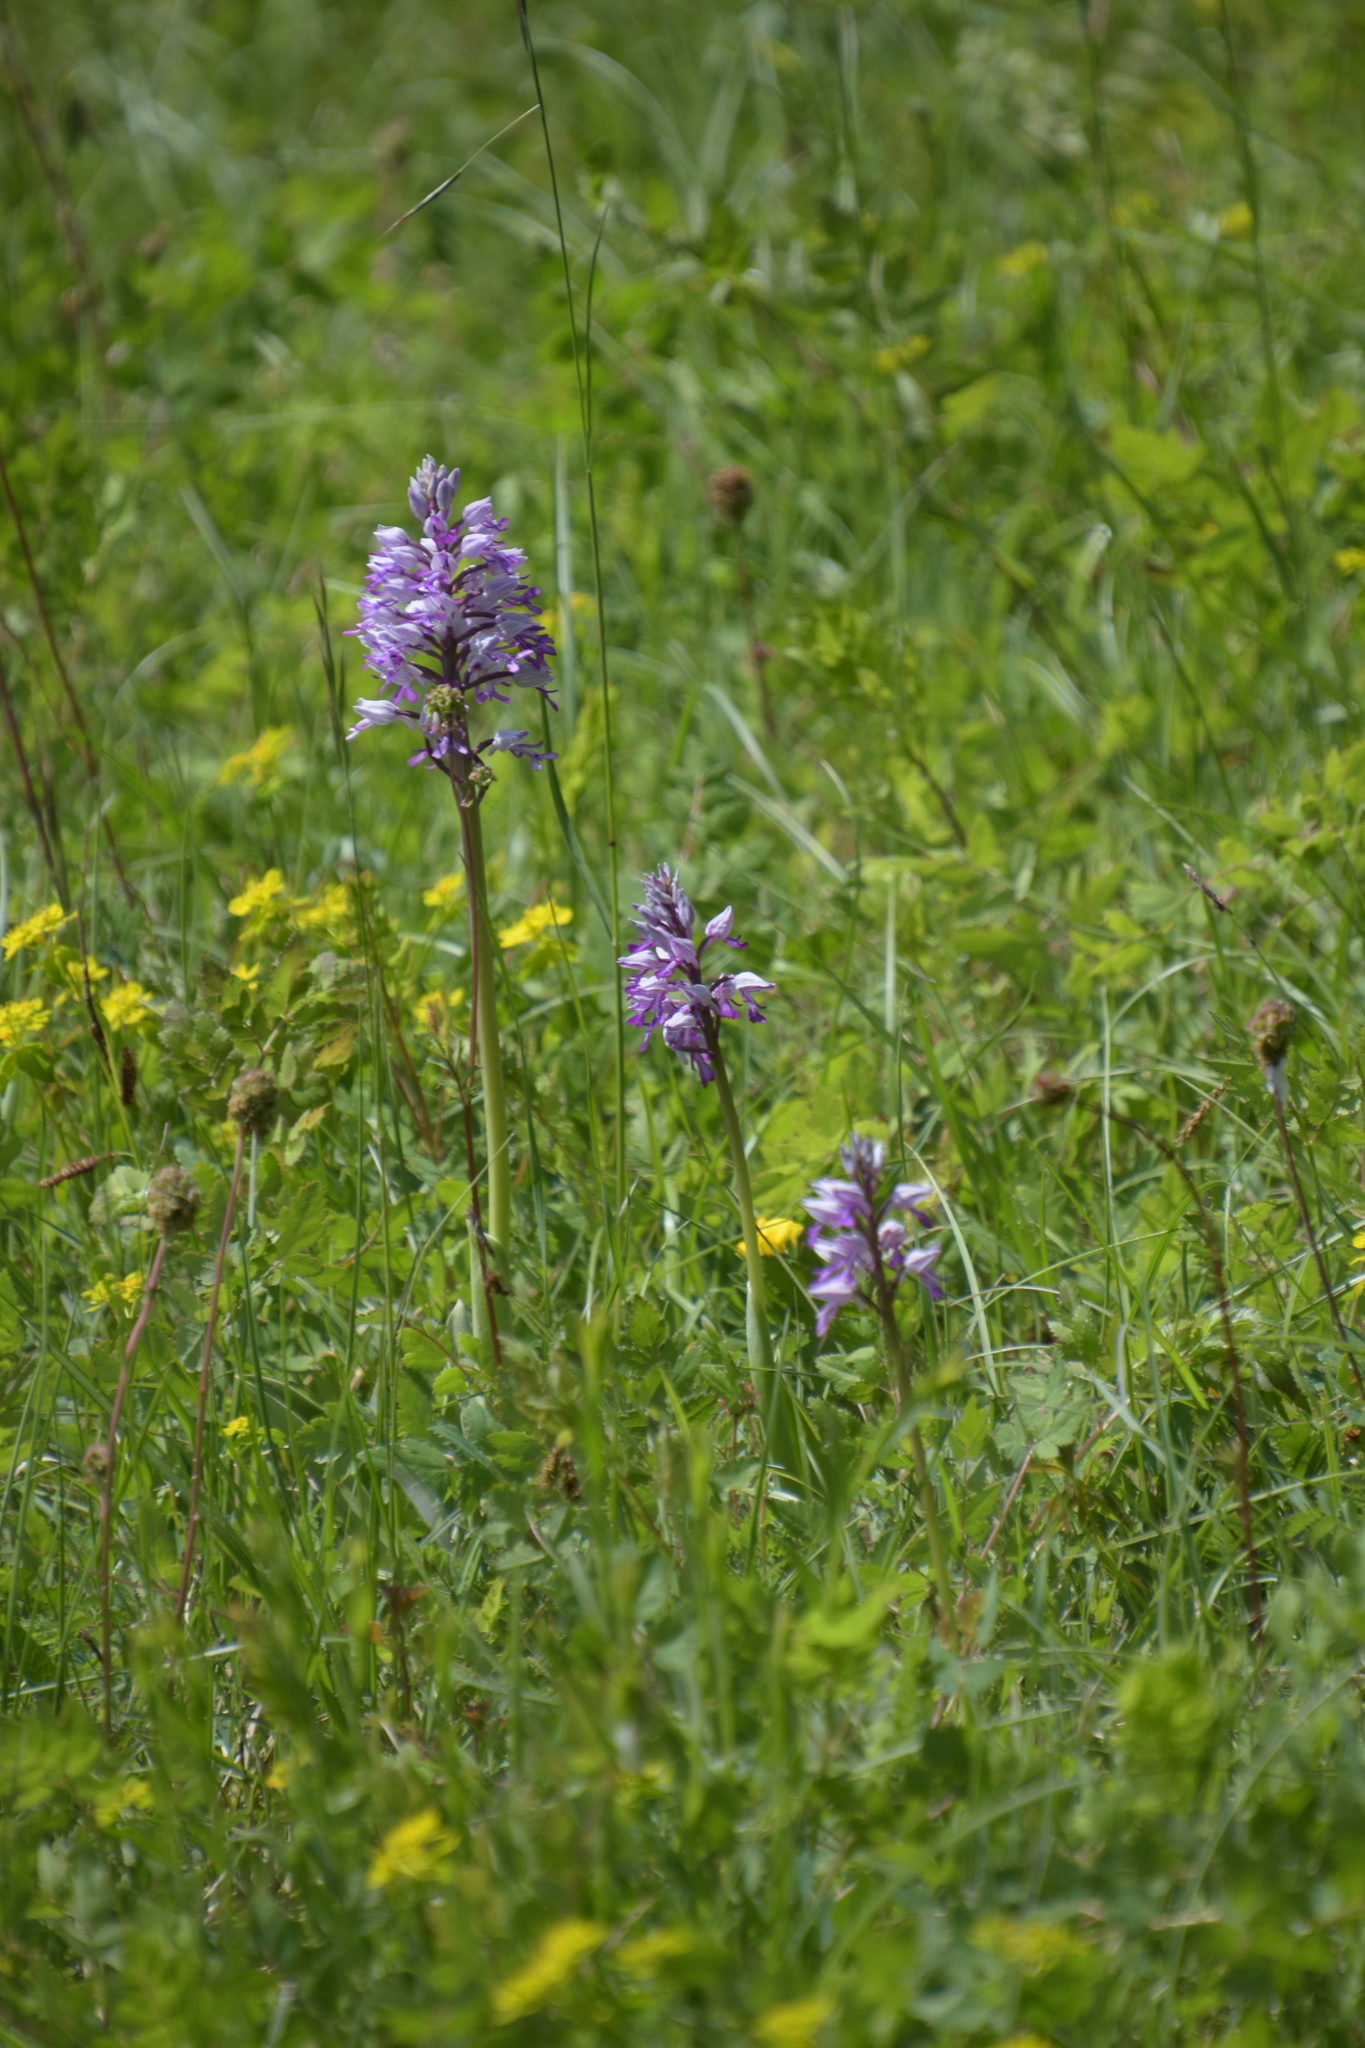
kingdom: Plantae
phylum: Tracheophyta
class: Liliopsida
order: Asparagales
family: Orchidaceae
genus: Orchis
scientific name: Orchis militaris
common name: Military orchid
